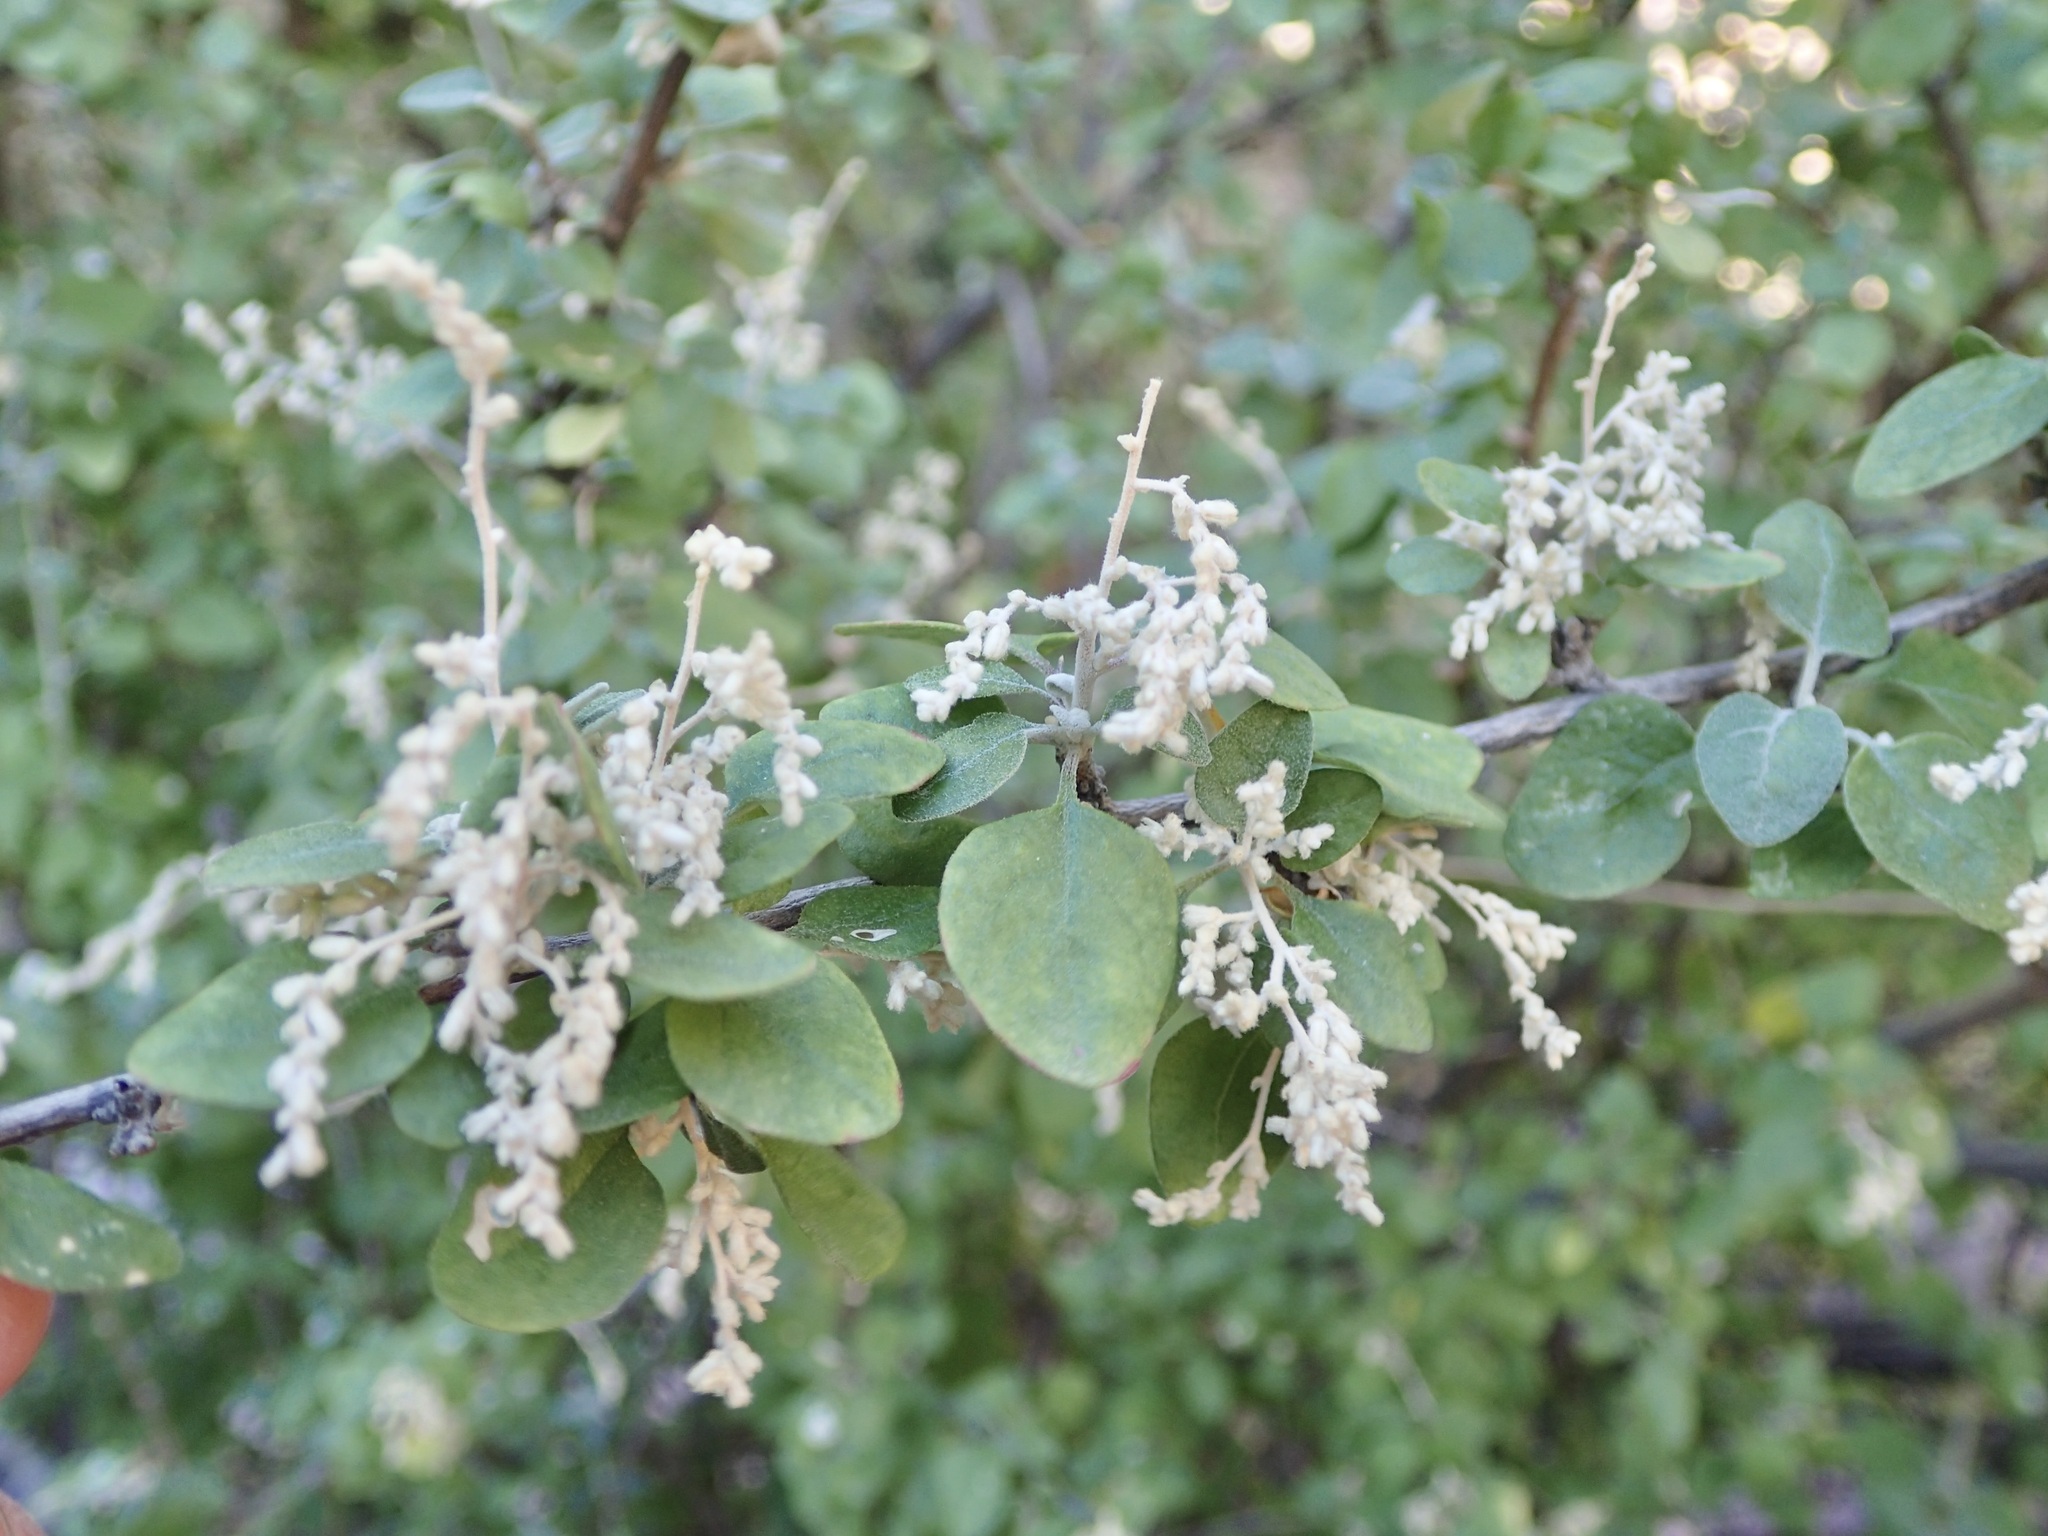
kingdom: Plantae
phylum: Tracheophyta
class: Magnoliopsida
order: Caryophyllales
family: Amaranthaceae
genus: Iresine
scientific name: Iresine alternifolia
